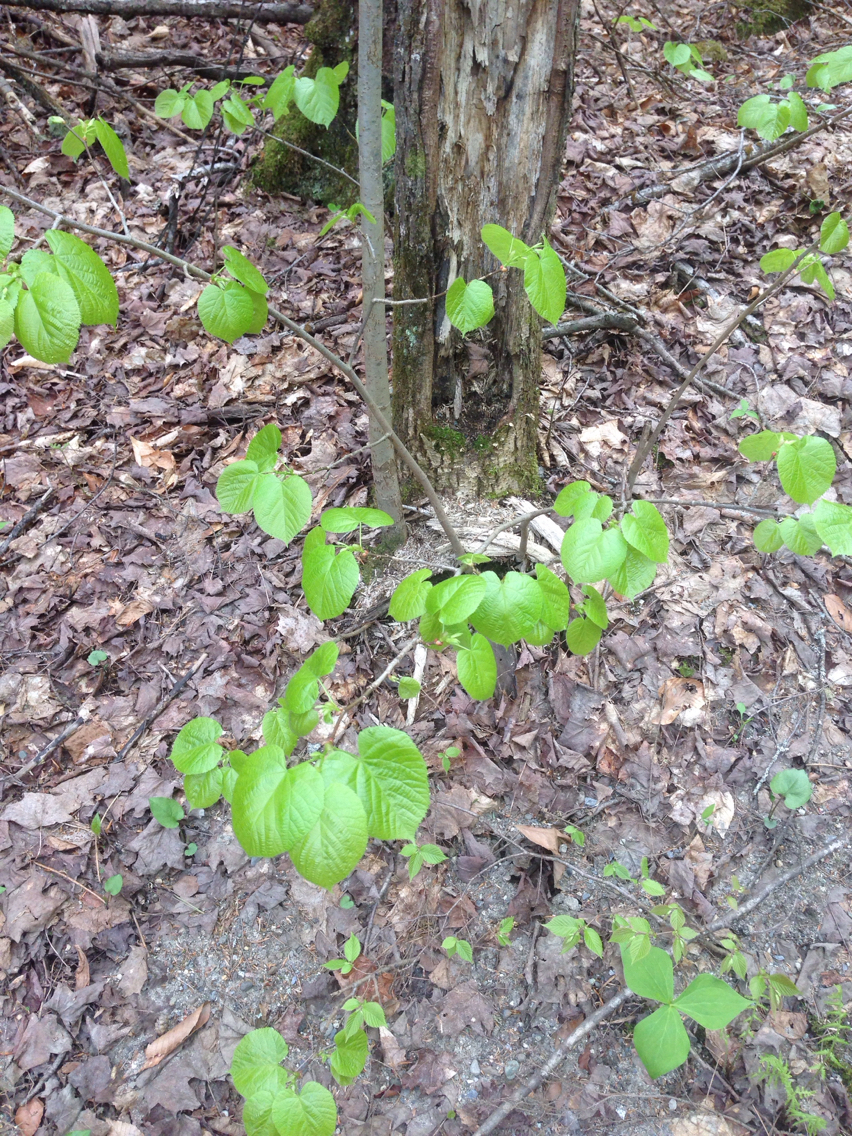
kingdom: Plantae
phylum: Tracheophyta
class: Magnoliopsida
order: Malvales
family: Malvaceae
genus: Tilia
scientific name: Tilia americana
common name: Basswood
